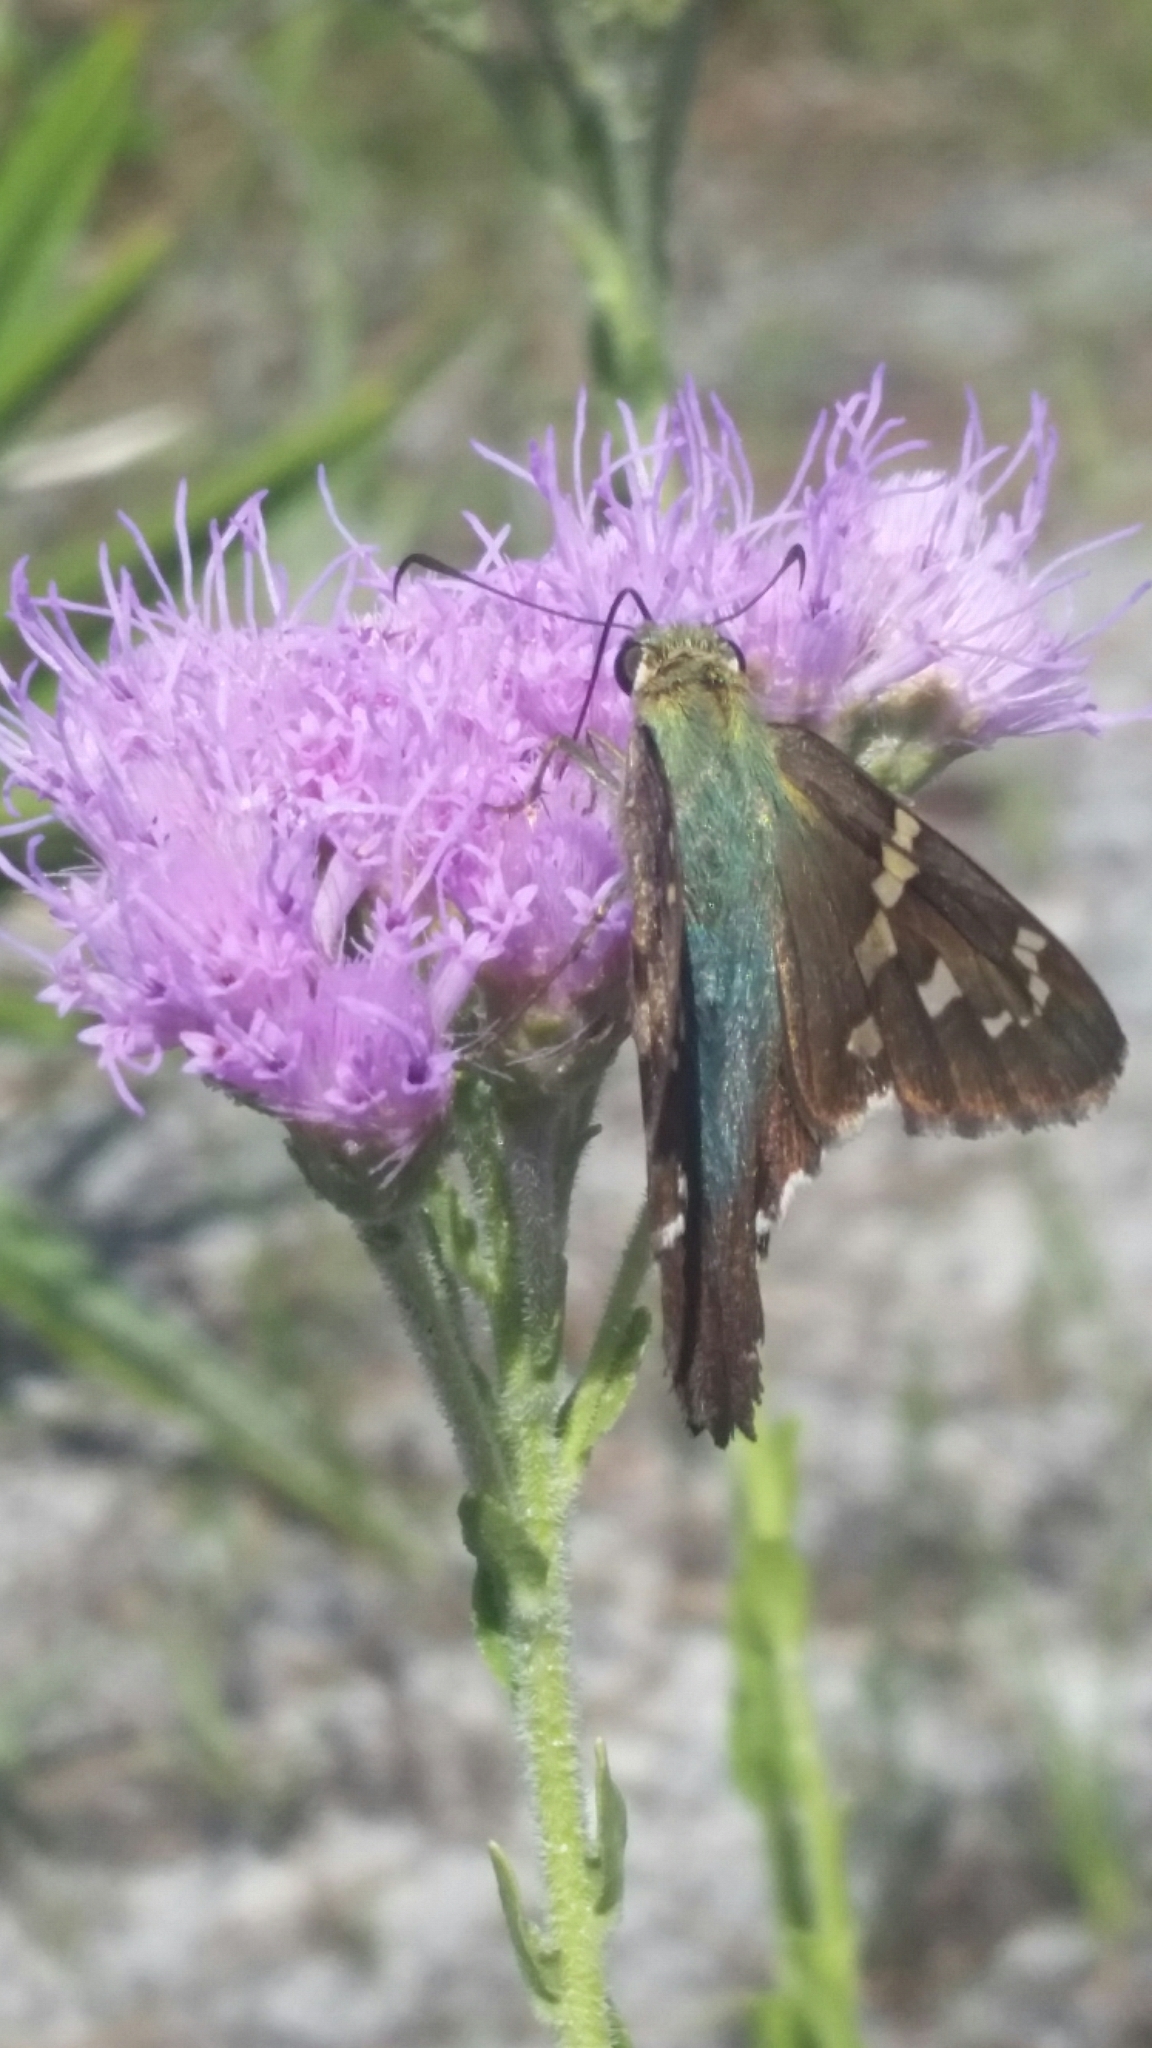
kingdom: Animalia
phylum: Arthropoda
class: Insecta
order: Lepidoptera
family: Hesperiidae
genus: Urbanus
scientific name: Urbanus proteus
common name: Long-tailed skipper
